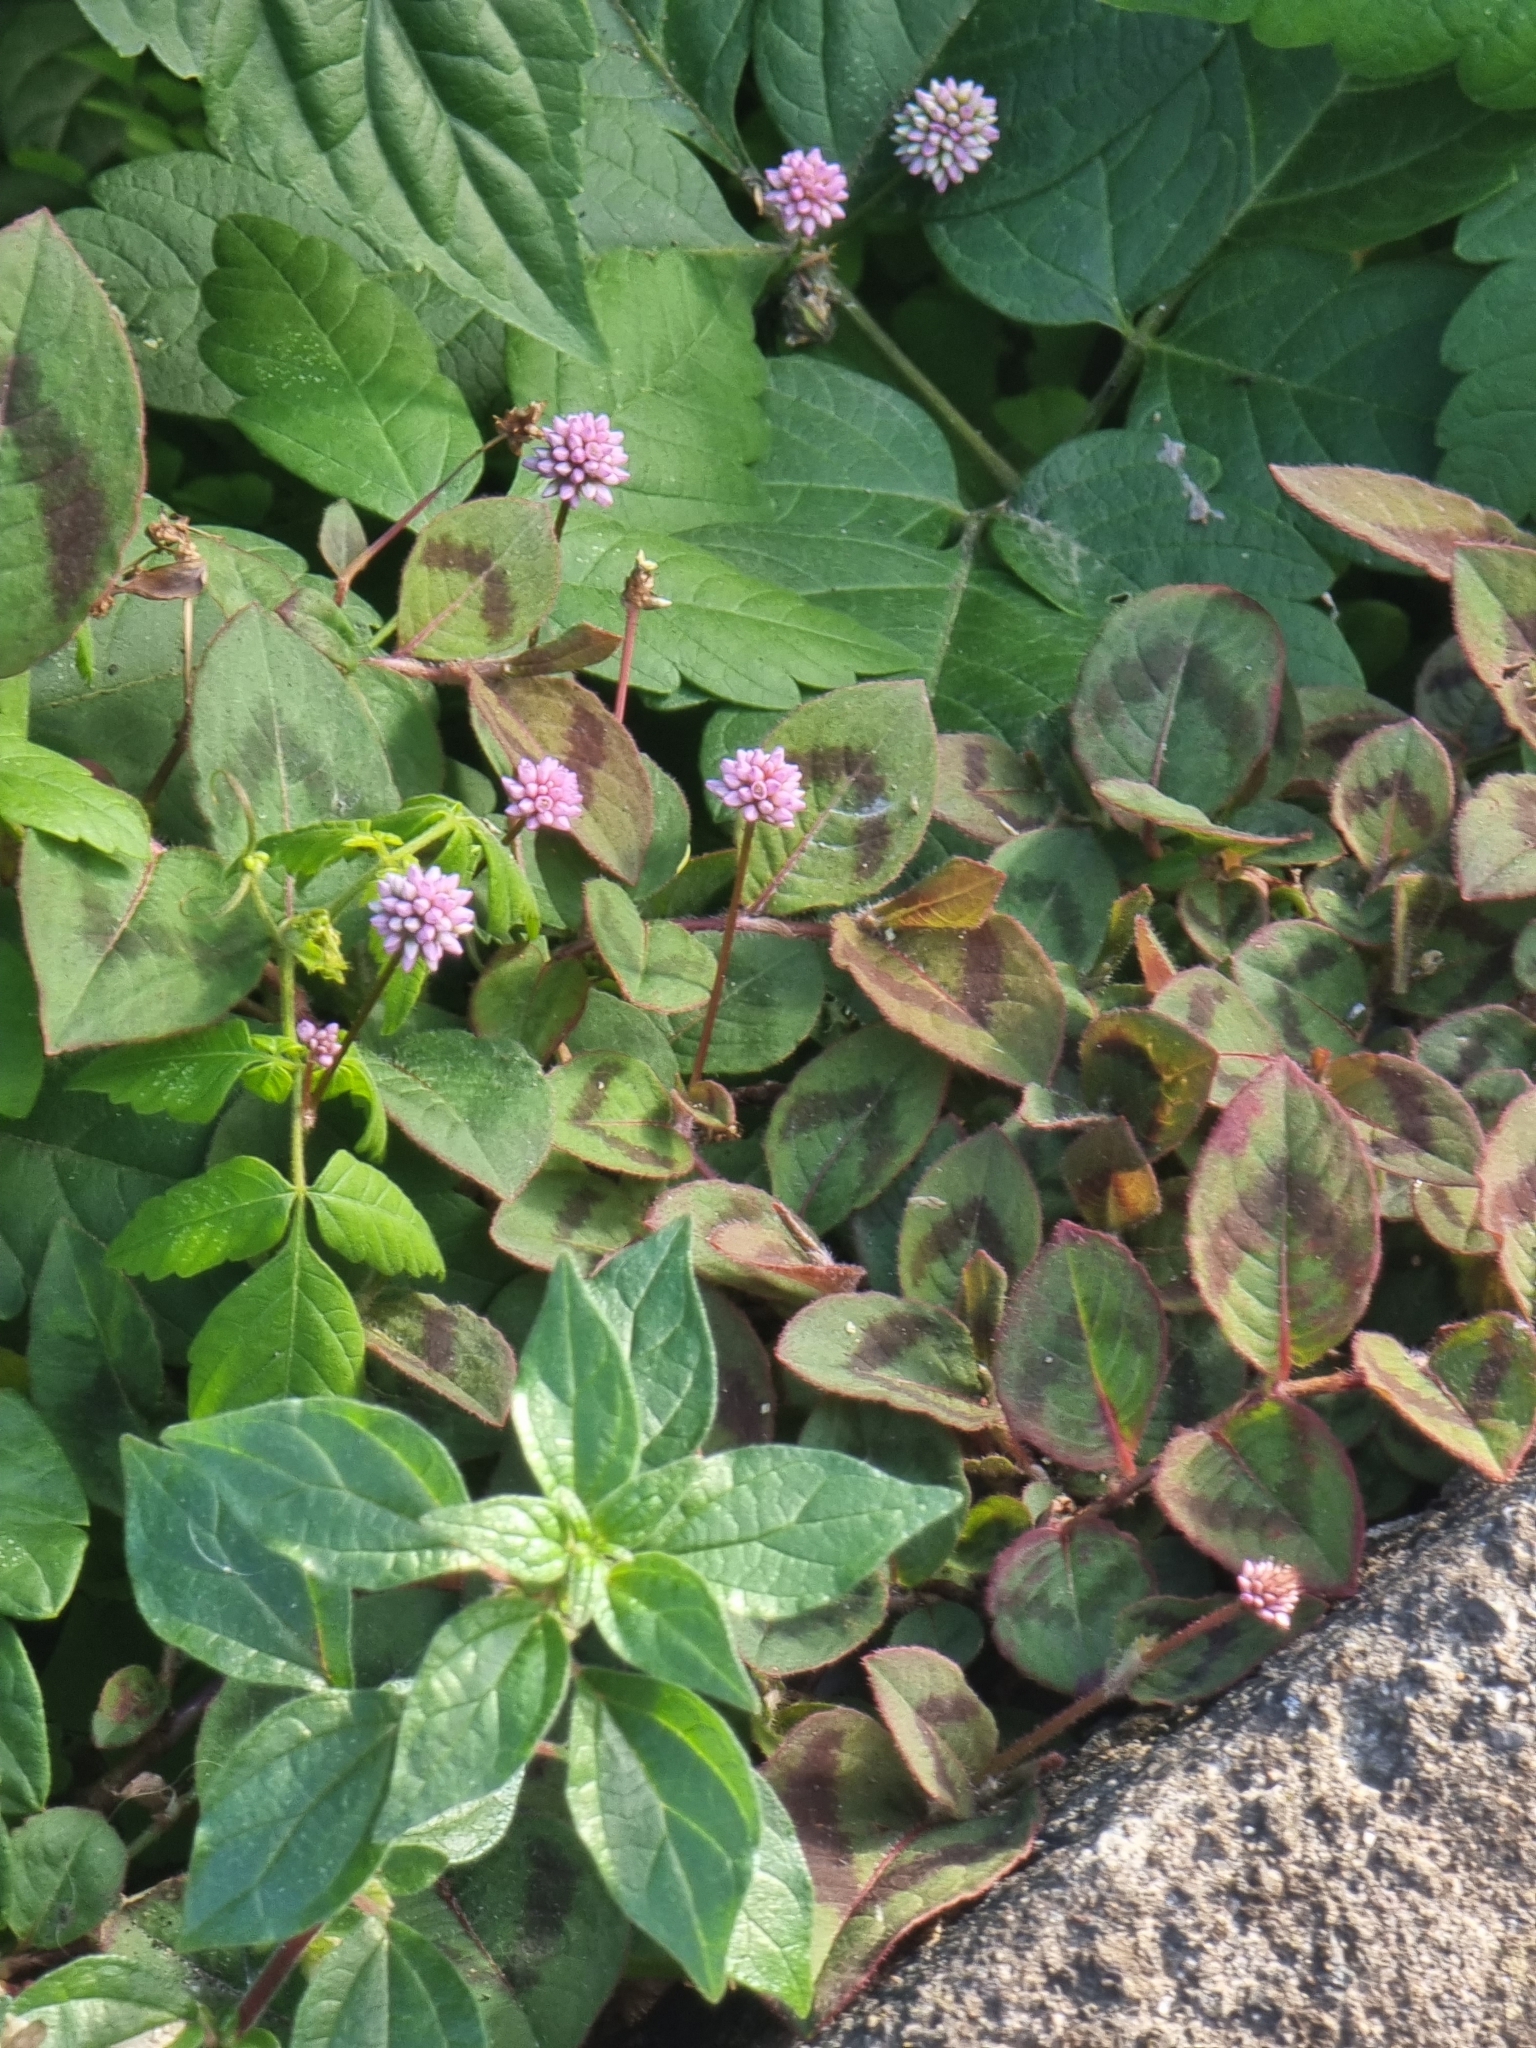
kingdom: Plantae
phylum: Tracheophyta
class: Magnoliopsida
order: Caryophyllales
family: Polygonaceae
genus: Persicaria
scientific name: Persicaria capitata
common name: Pinkhead smartweed
